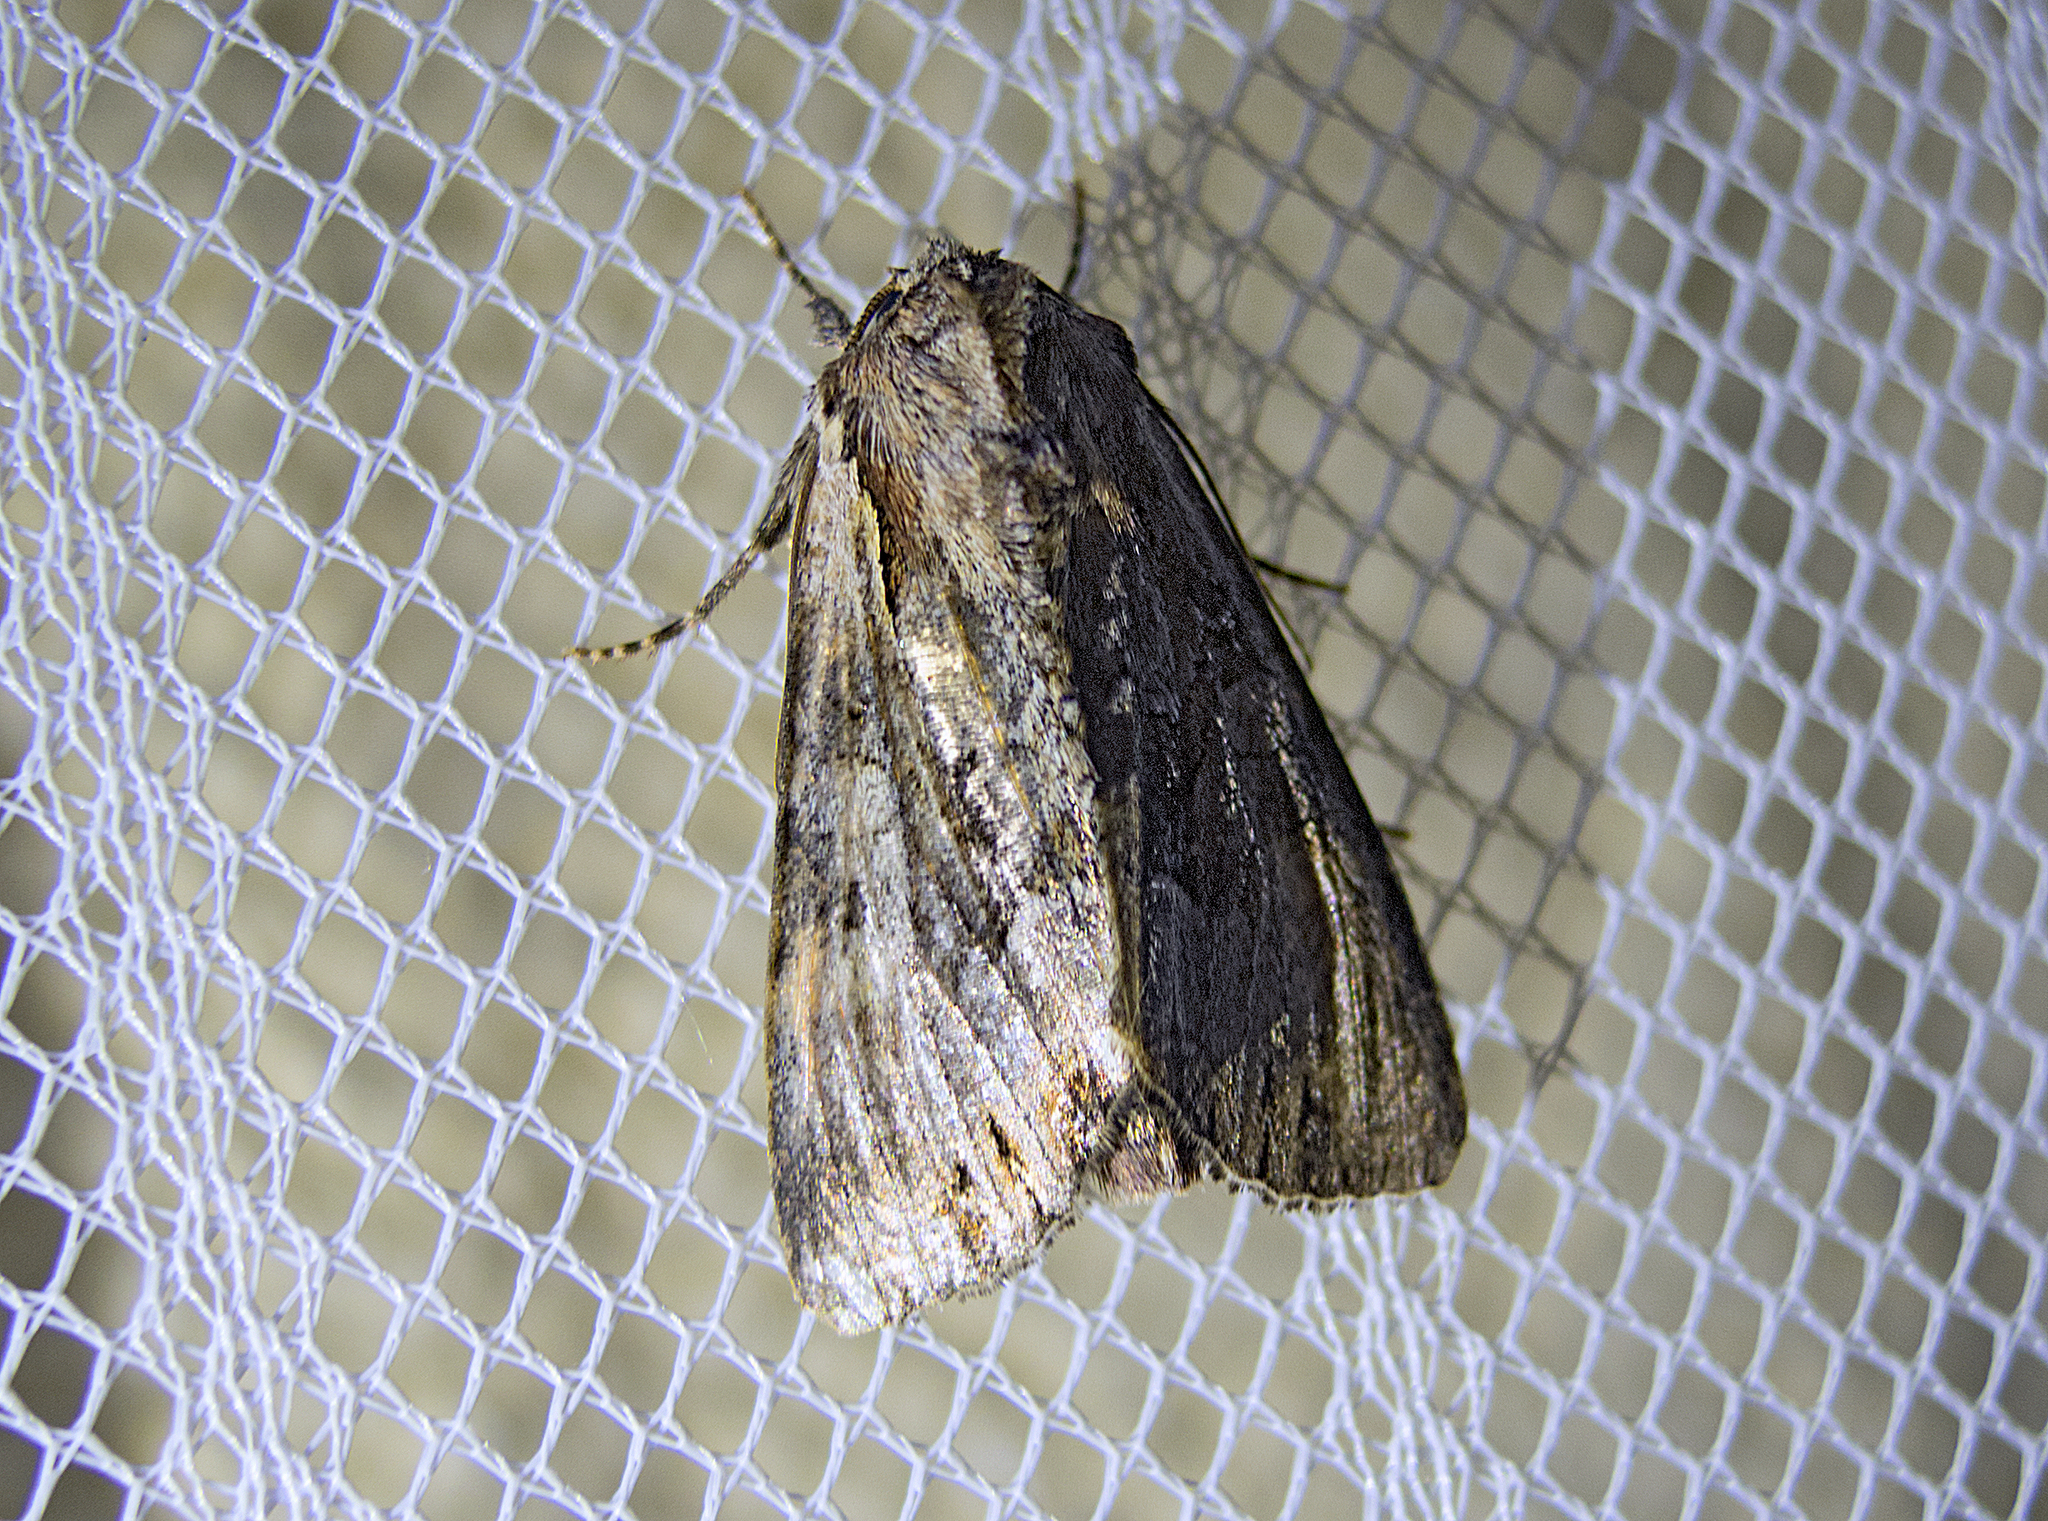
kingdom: Animalia
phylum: Arthropoda
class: Insecta
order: Lepidoptera
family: Noctuidae
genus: Lacanobia
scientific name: Lacanobia w-latinum
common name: Light brocade
